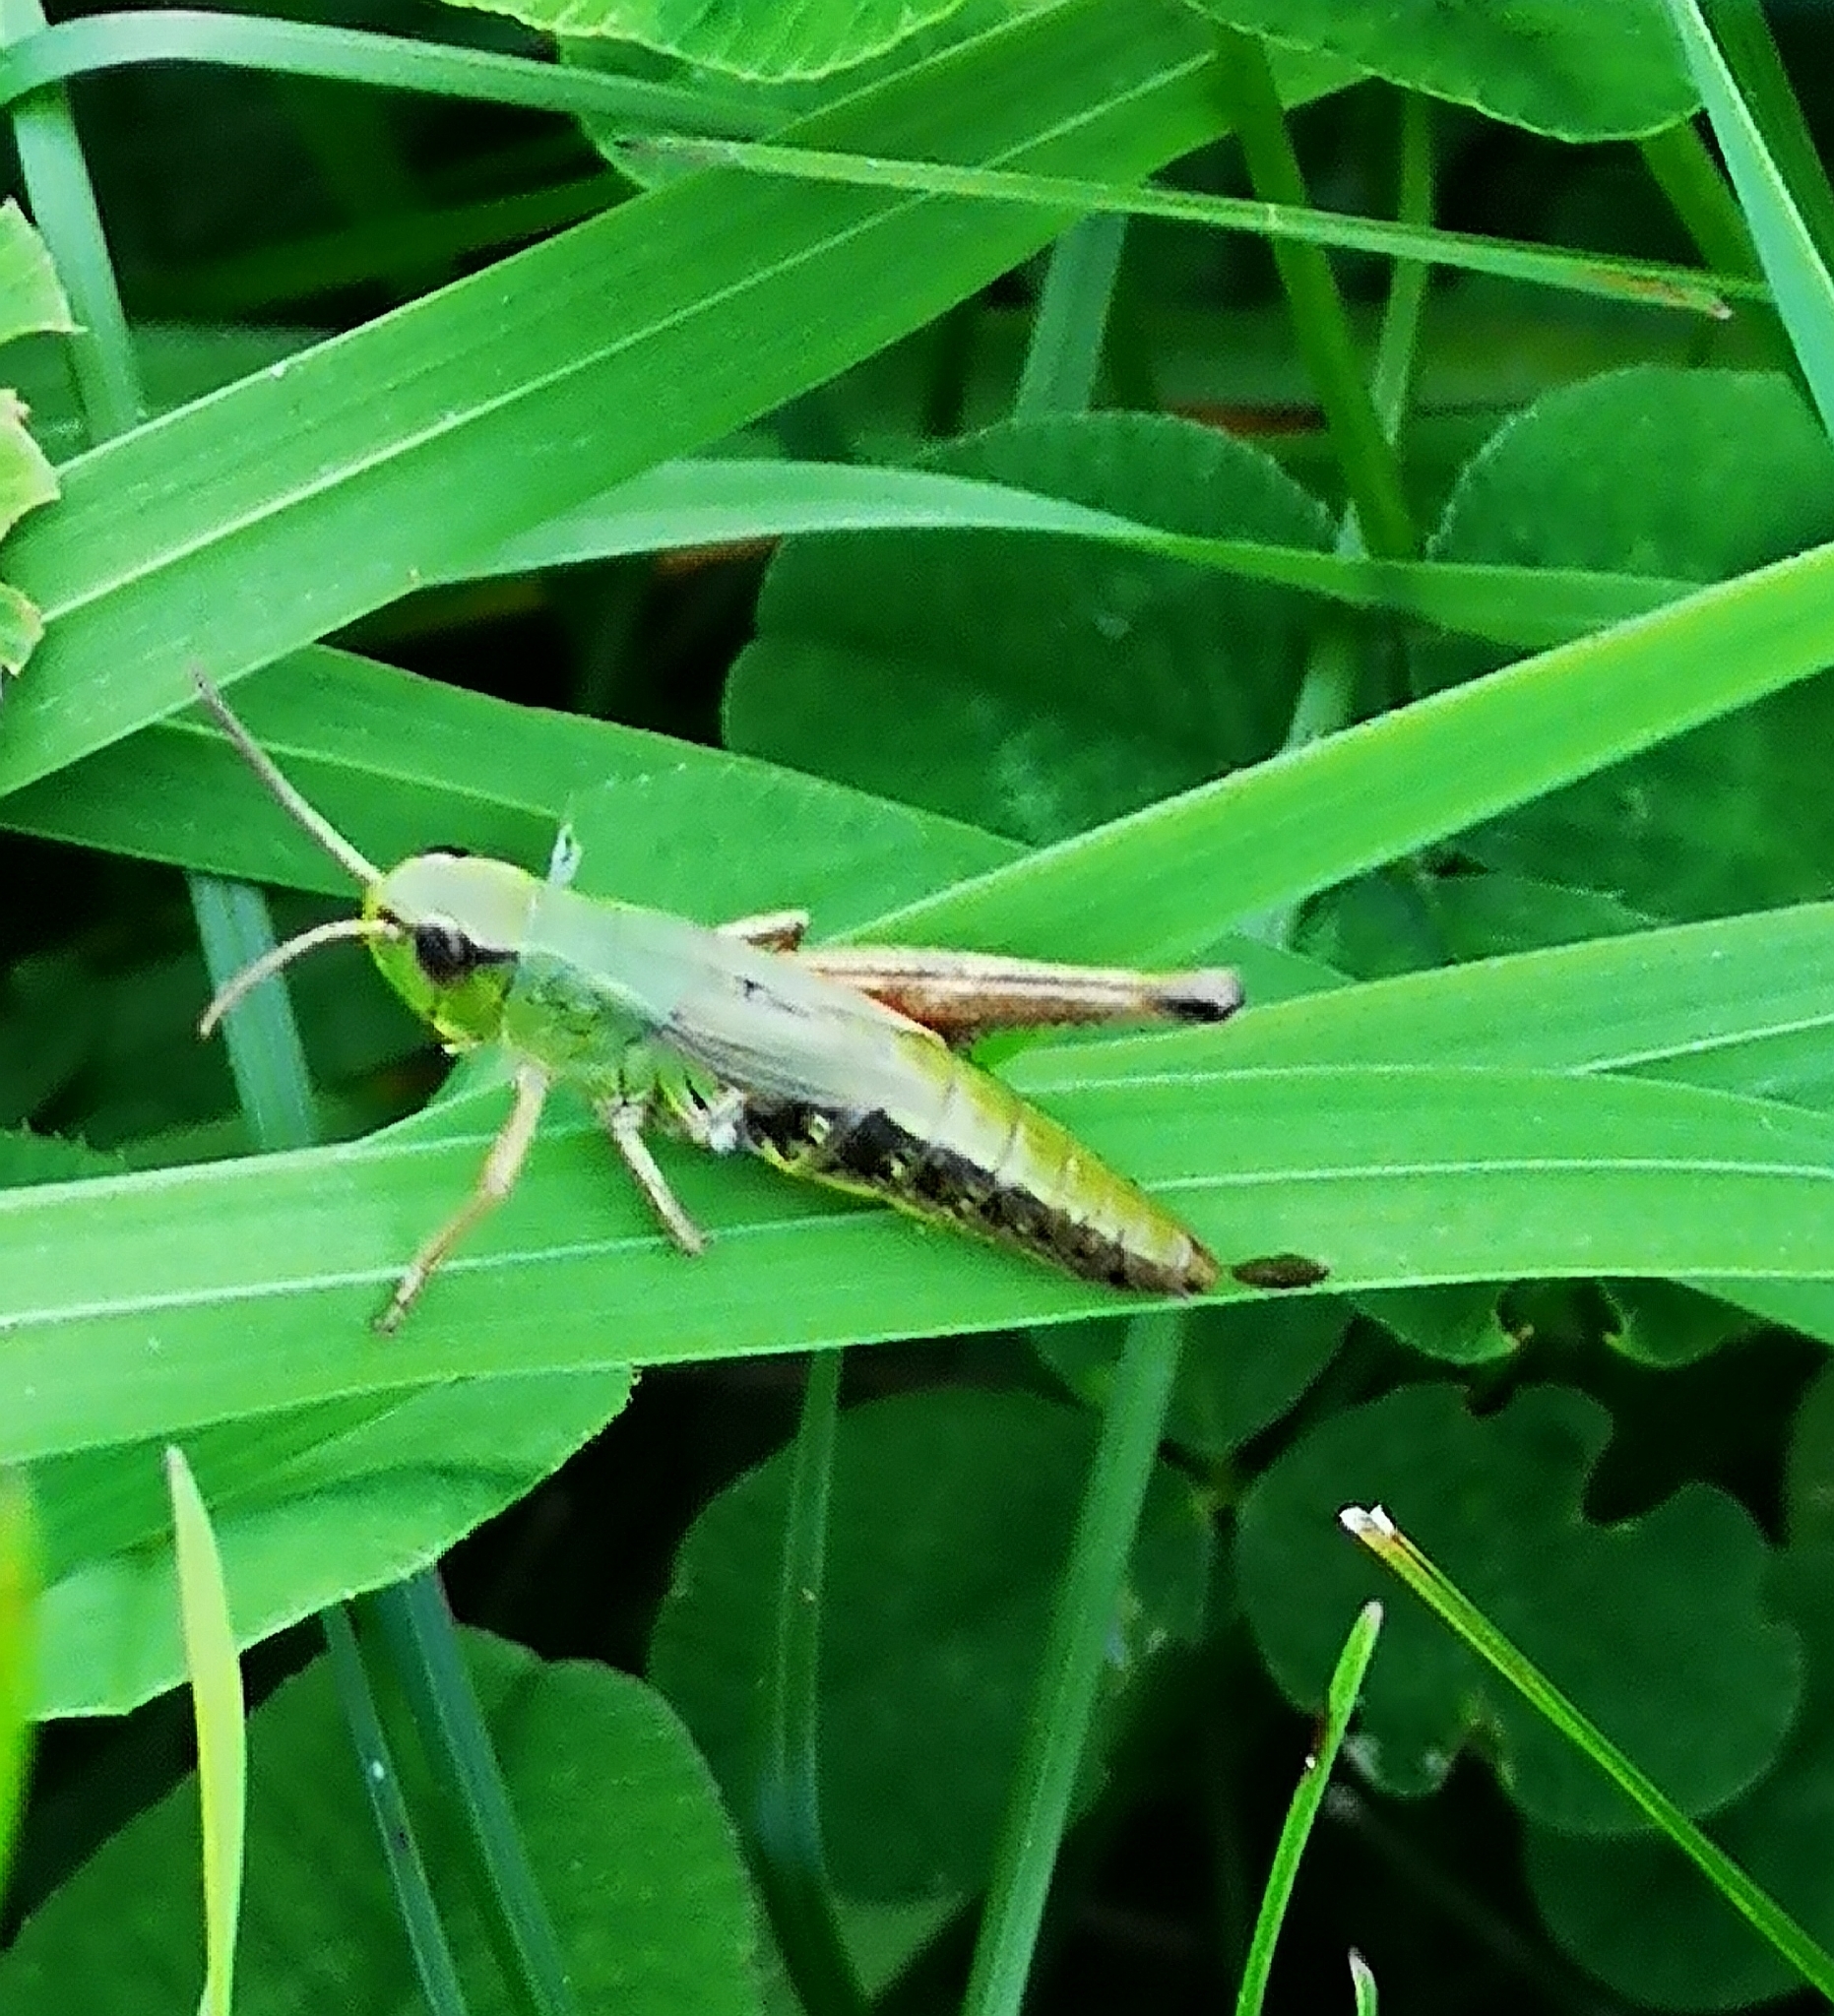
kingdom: Animalia
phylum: Arthropoda
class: Insecta
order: Orthoptera
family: Acrididae
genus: Pseudochorthippus
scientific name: Pseudochorthippus parallelus
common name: Meadow grasshopper
